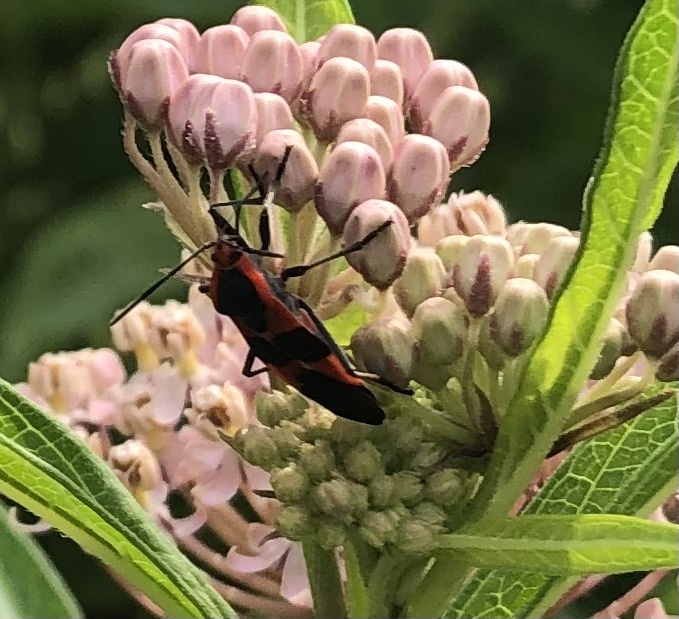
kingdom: Animalia
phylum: Arthropoda
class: Insecta
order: Hemiptera
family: Lygaeidae
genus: Oncopeltus
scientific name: Oncopeltus fasciatus
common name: Large milkweed bug
